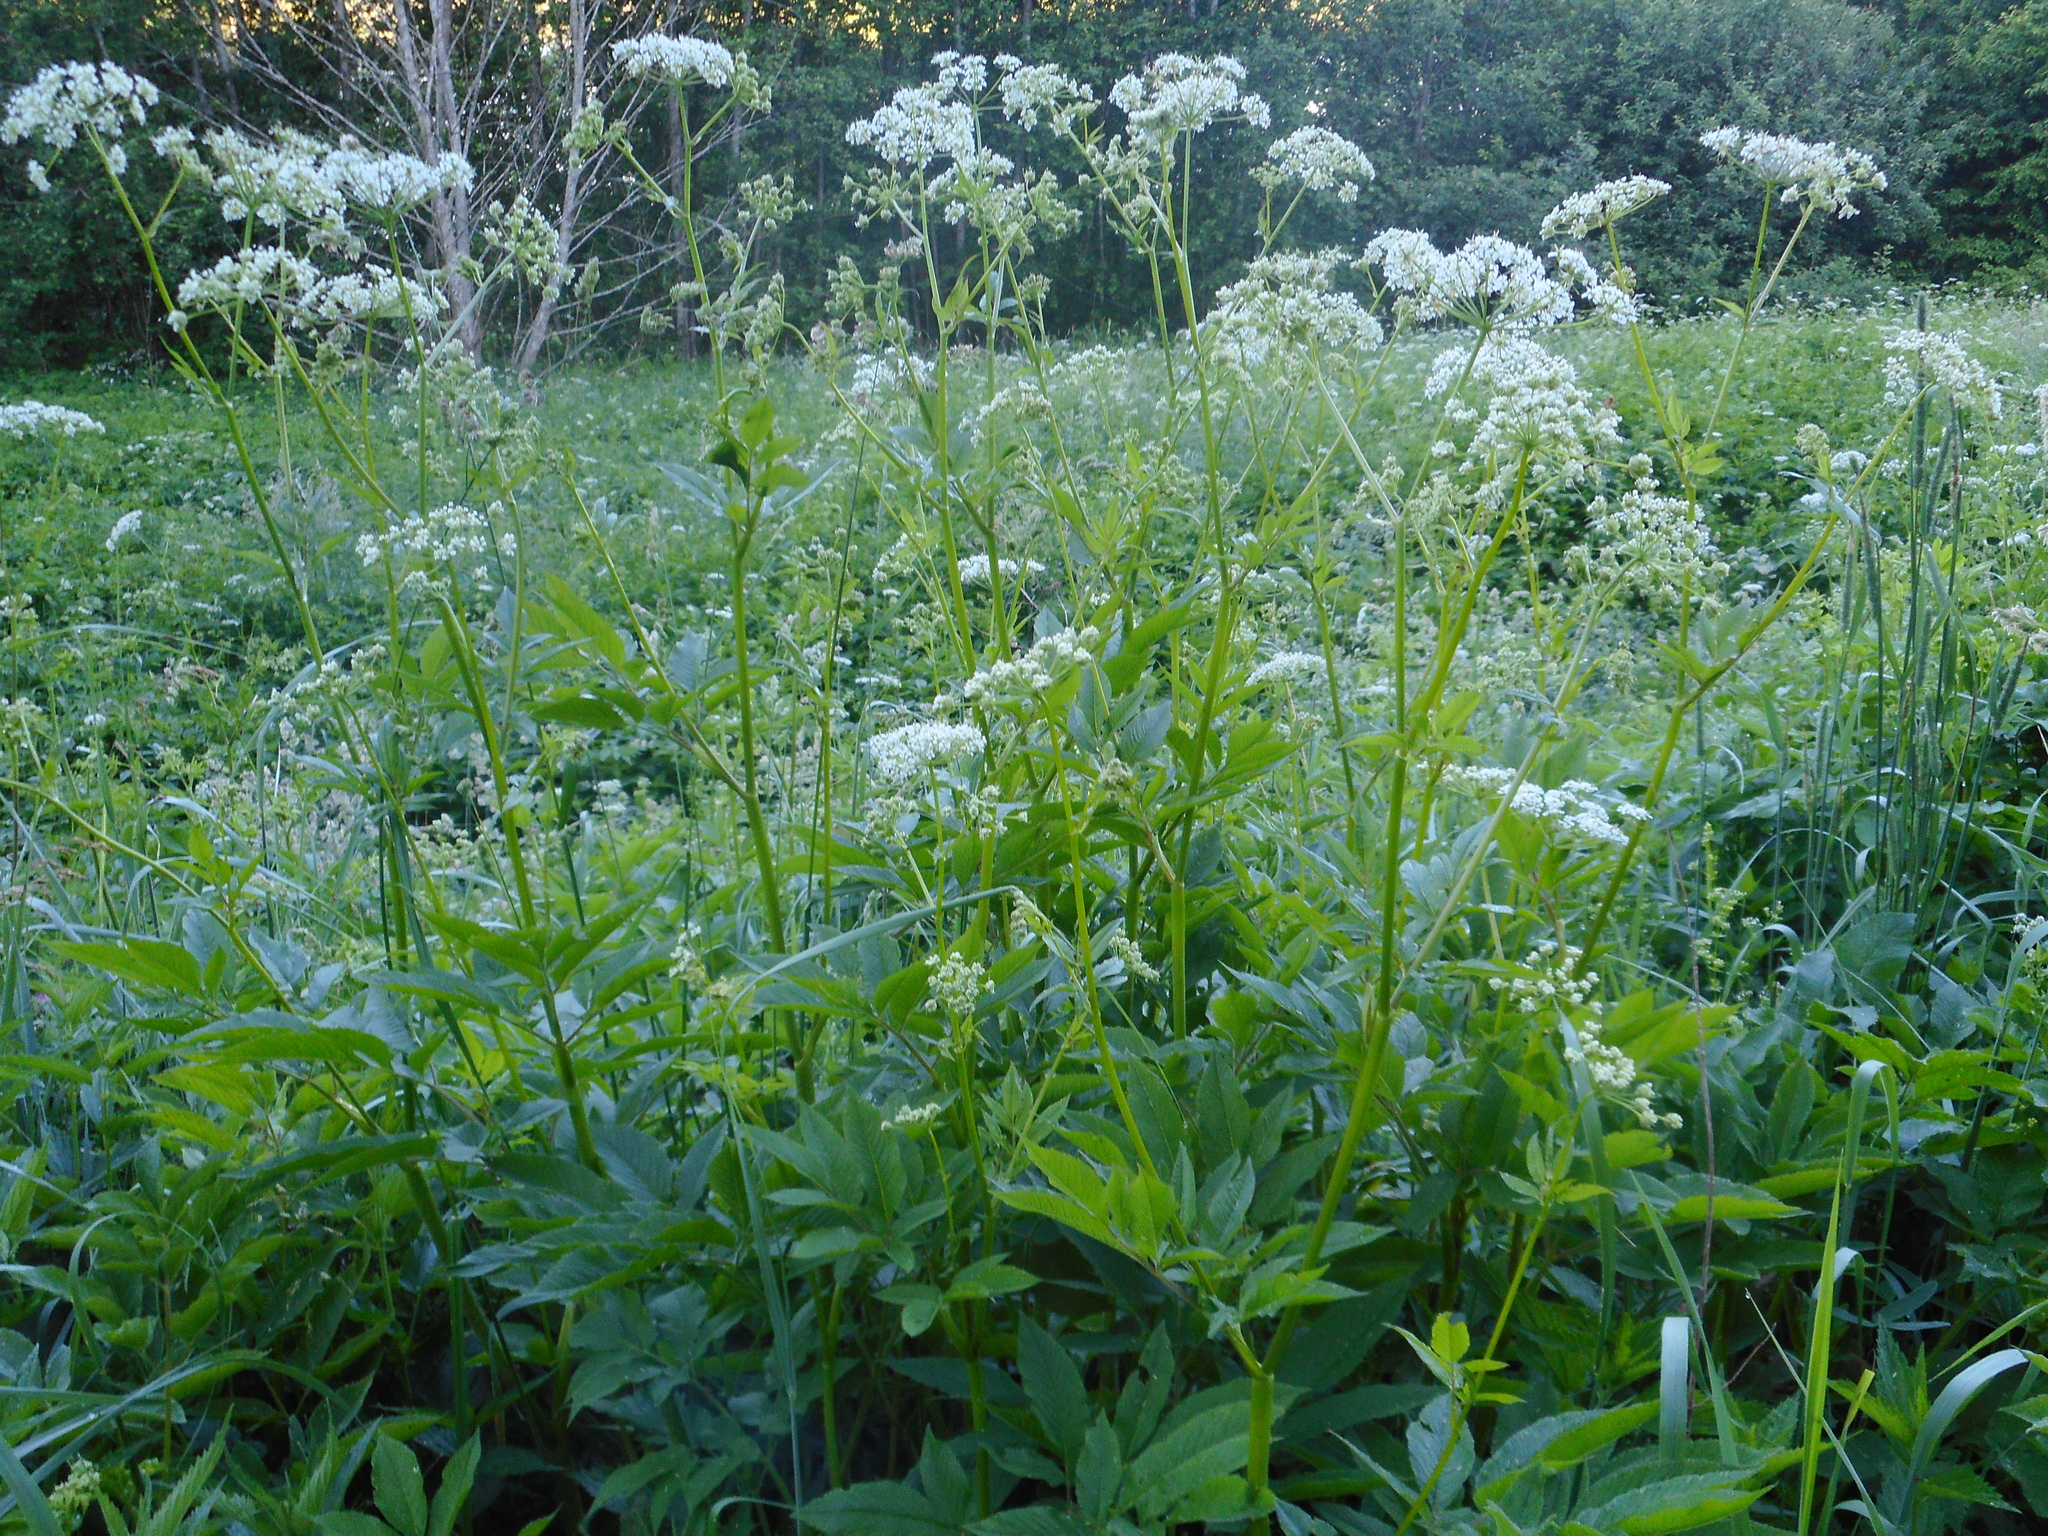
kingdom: Plantae
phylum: Tracheophyta
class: Magnoliopsida
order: Apiales
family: Apiaceae
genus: Chaerophyllum
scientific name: Chaerophyllum aromaticum
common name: Broadleaf chervil
